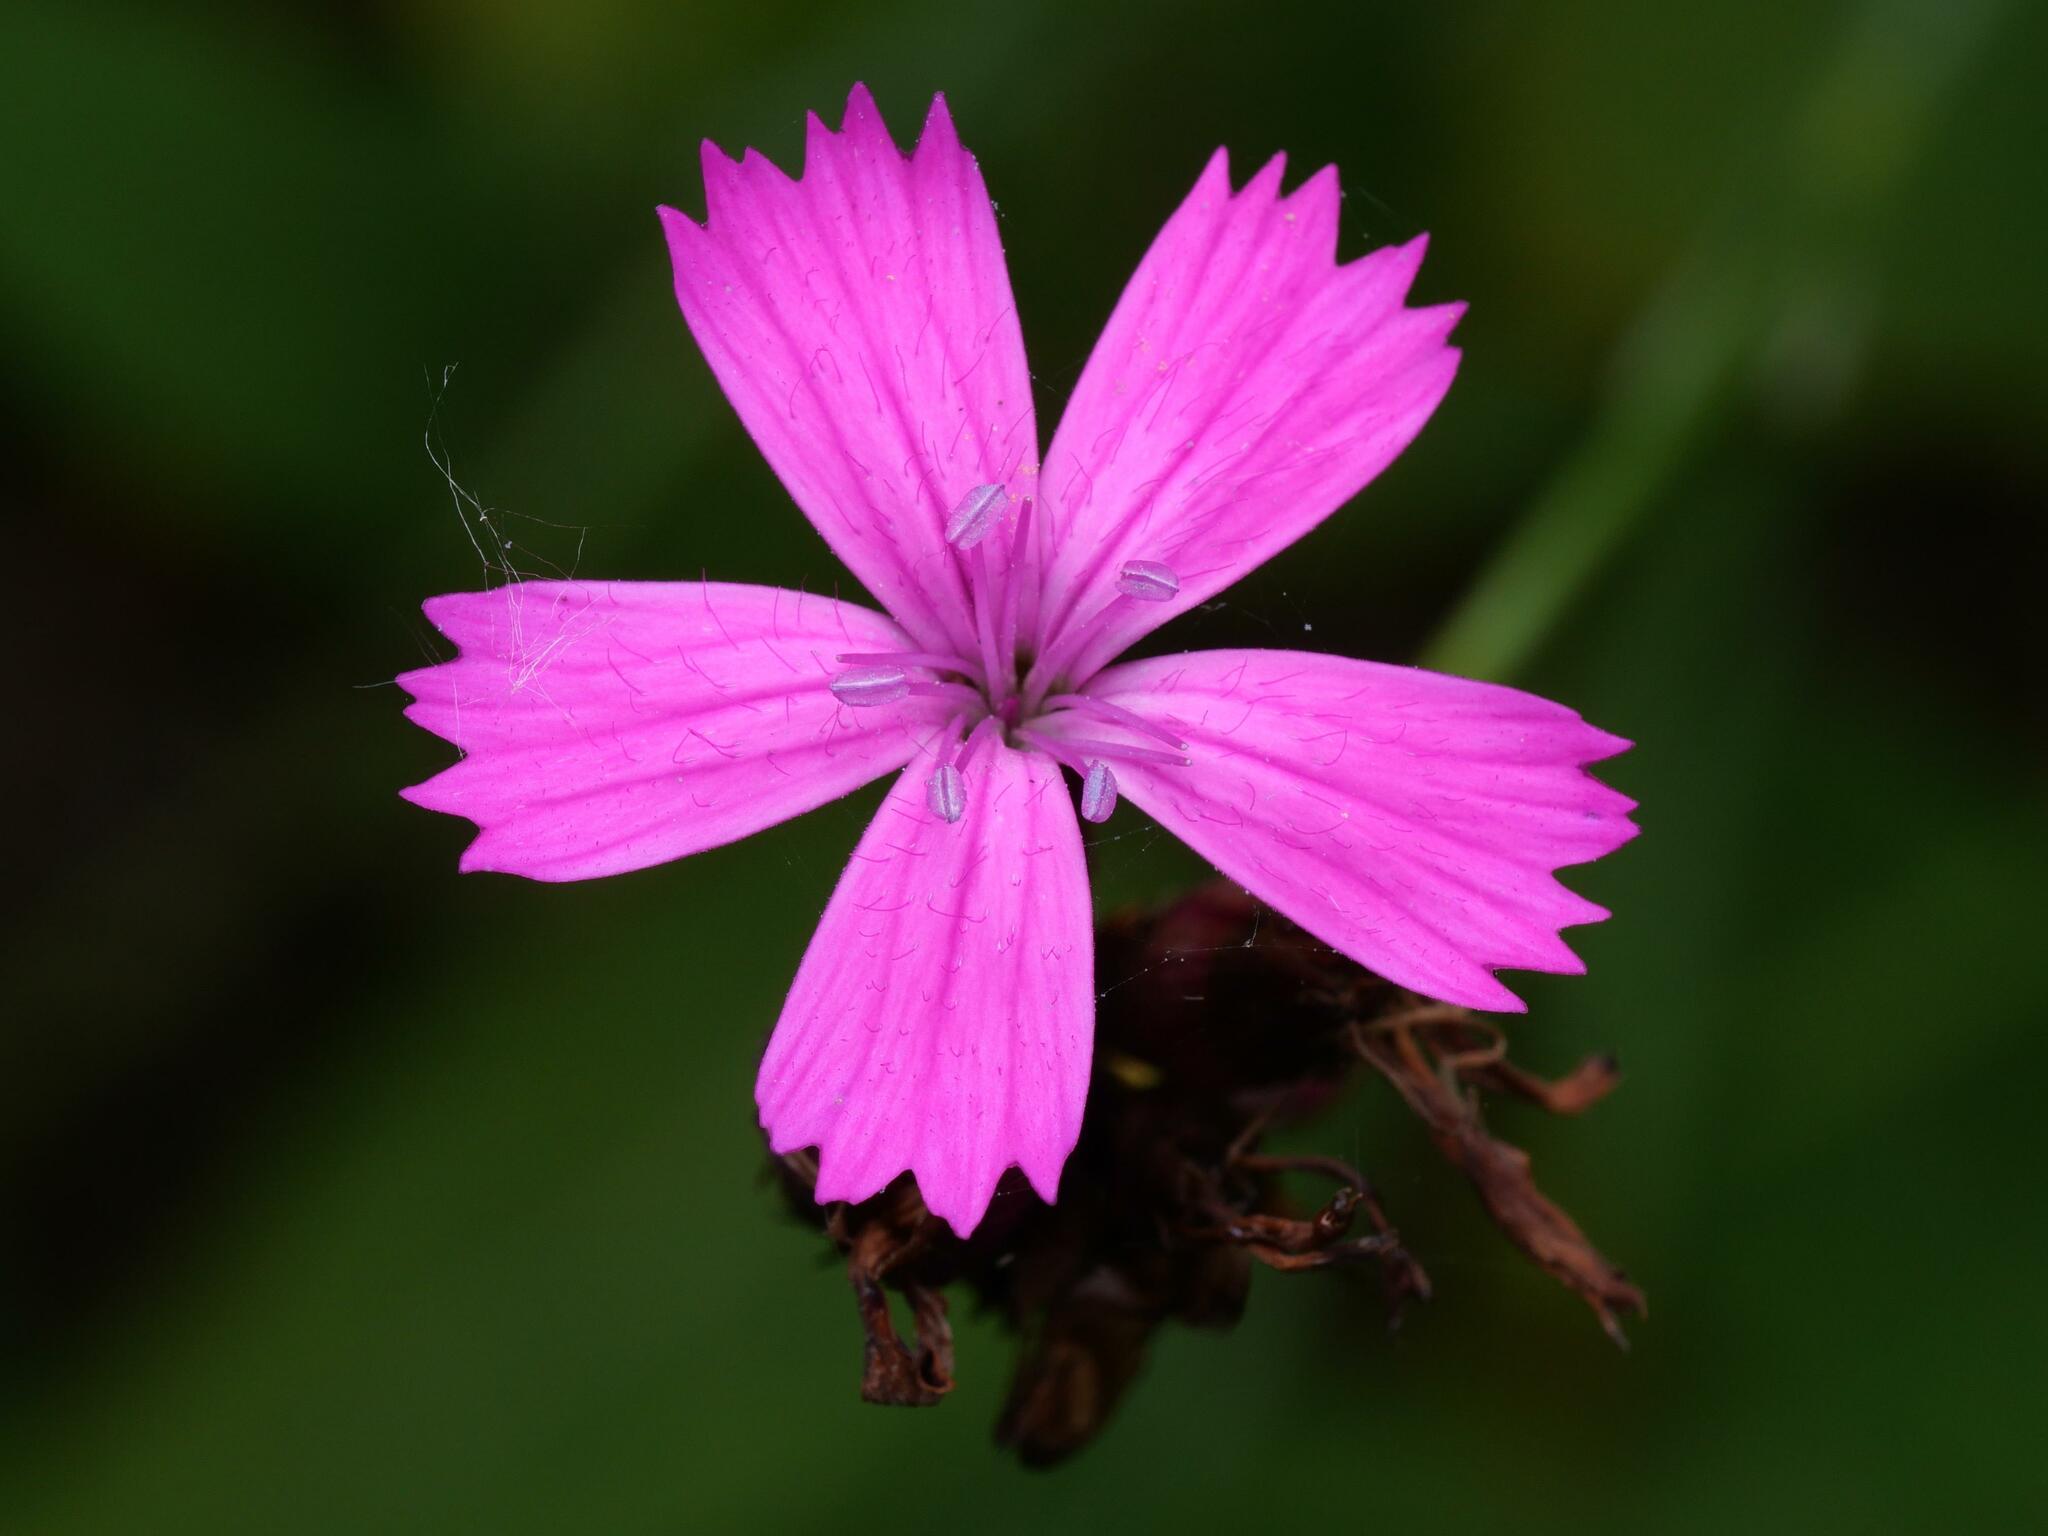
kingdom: Plantae
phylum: Tracheophyta
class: Magnoliopsida
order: Caryophyllales
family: Caryophyllaceae
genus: Dianthus
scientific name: Dianthus carthusianorum
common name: Carthusian pink
